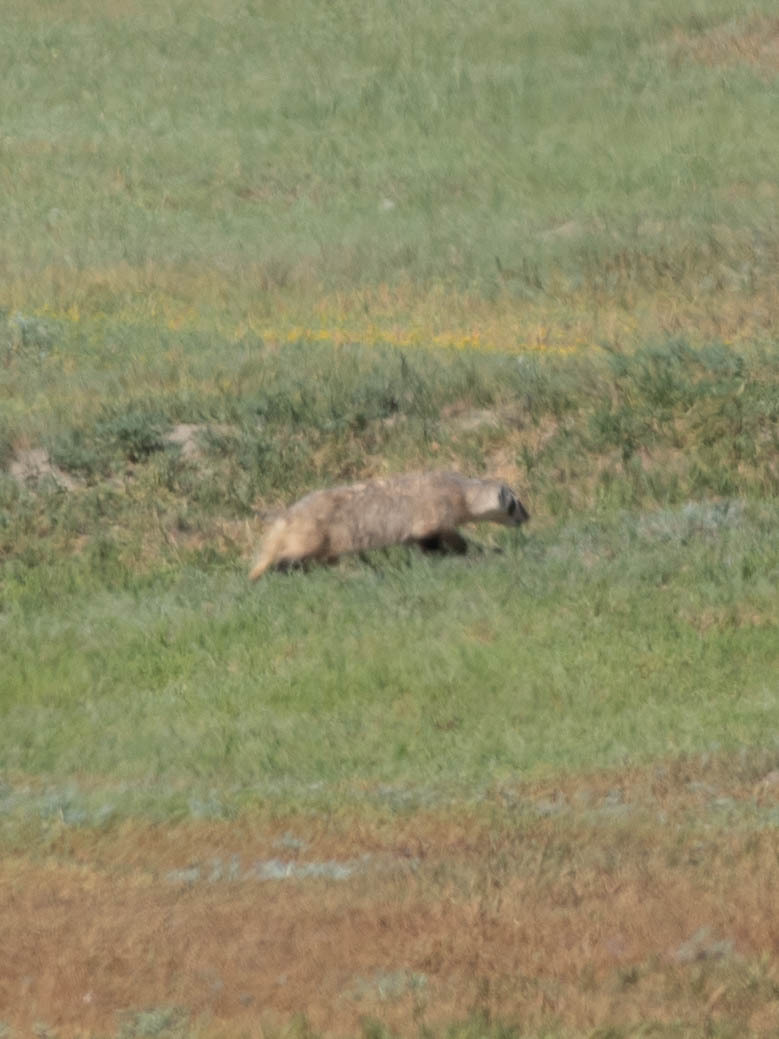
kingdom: Animalia
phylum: Chordata
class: Mammalia
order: Carnivora
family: Mustelidae
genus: Taxidea
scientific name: Taxidea taxus
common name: American badger
